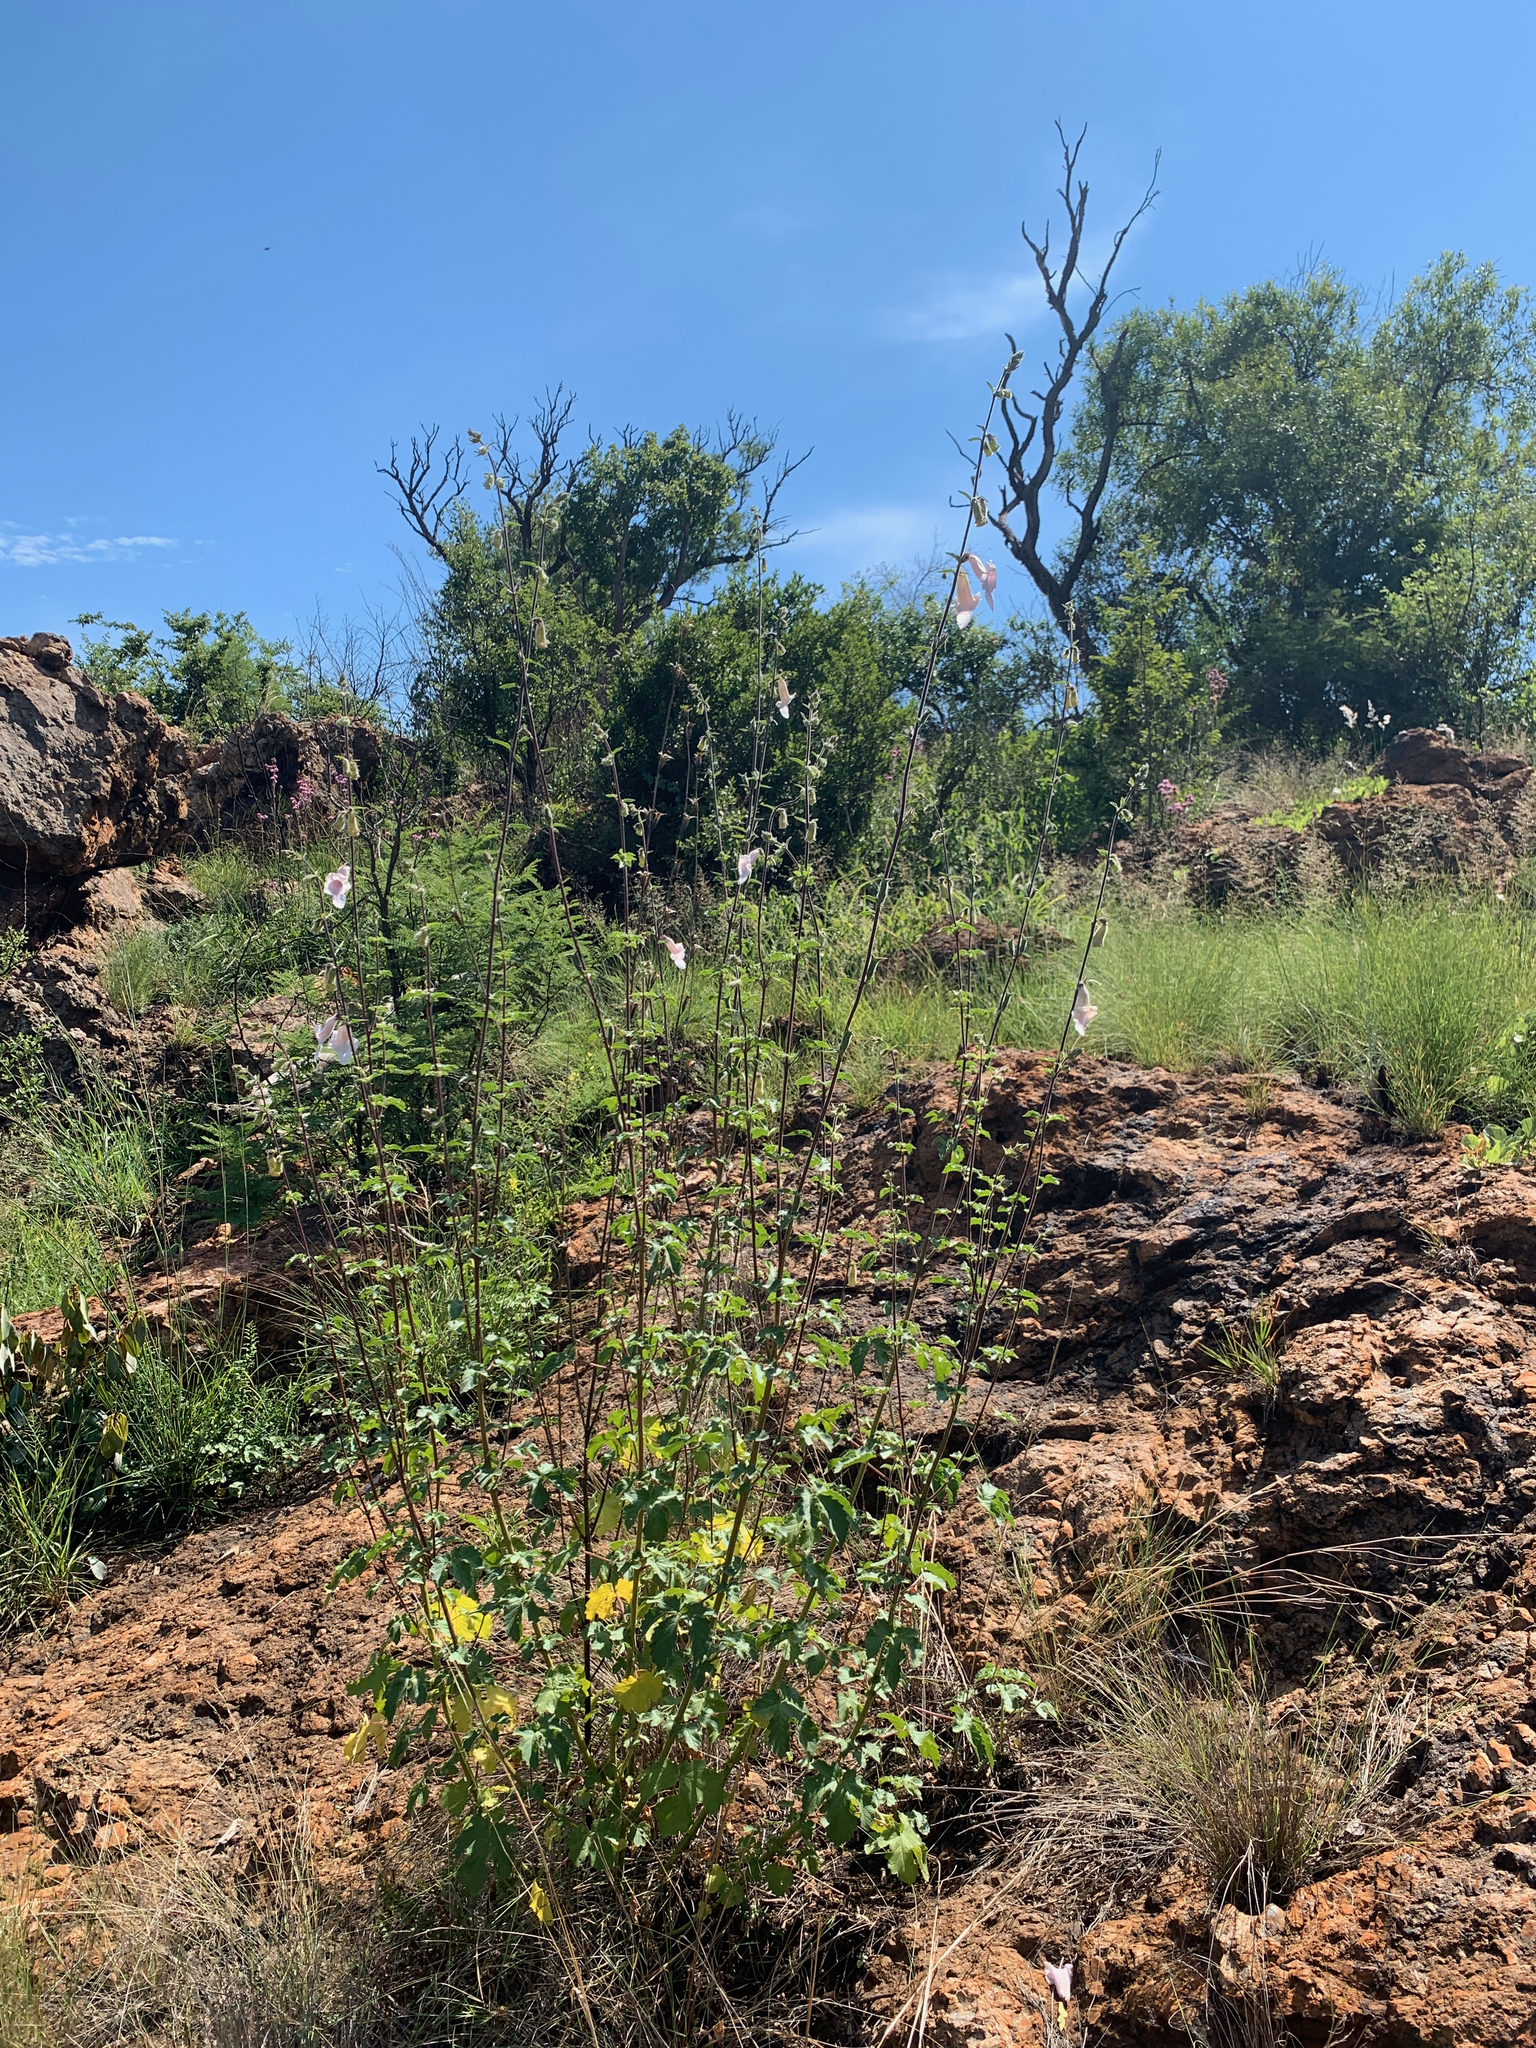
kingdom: Plantae
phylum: Tracheophyta
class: Magnoliopsida
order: Lamiales
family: Pedaliaceae
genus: Sesamum
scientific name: Sesamum trilobum
